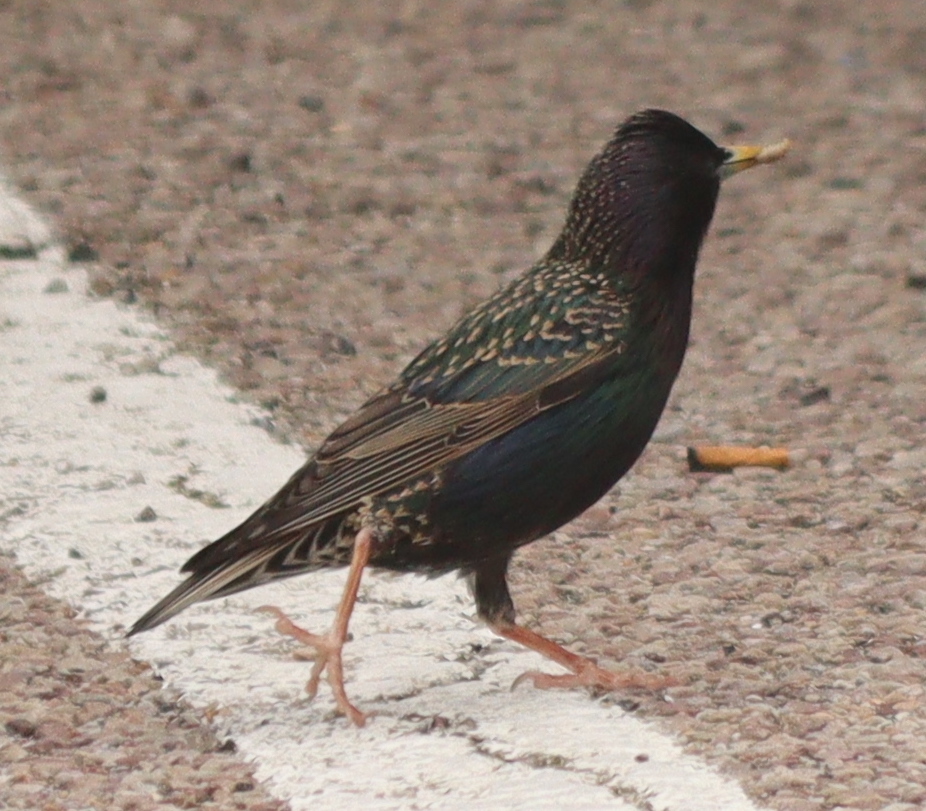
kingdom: Animalia
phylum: Chordata
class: Aves
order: Passeriformes
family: Sturnidae
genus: Sturnus
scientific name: Sturnus vulgaris
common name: Common starling
